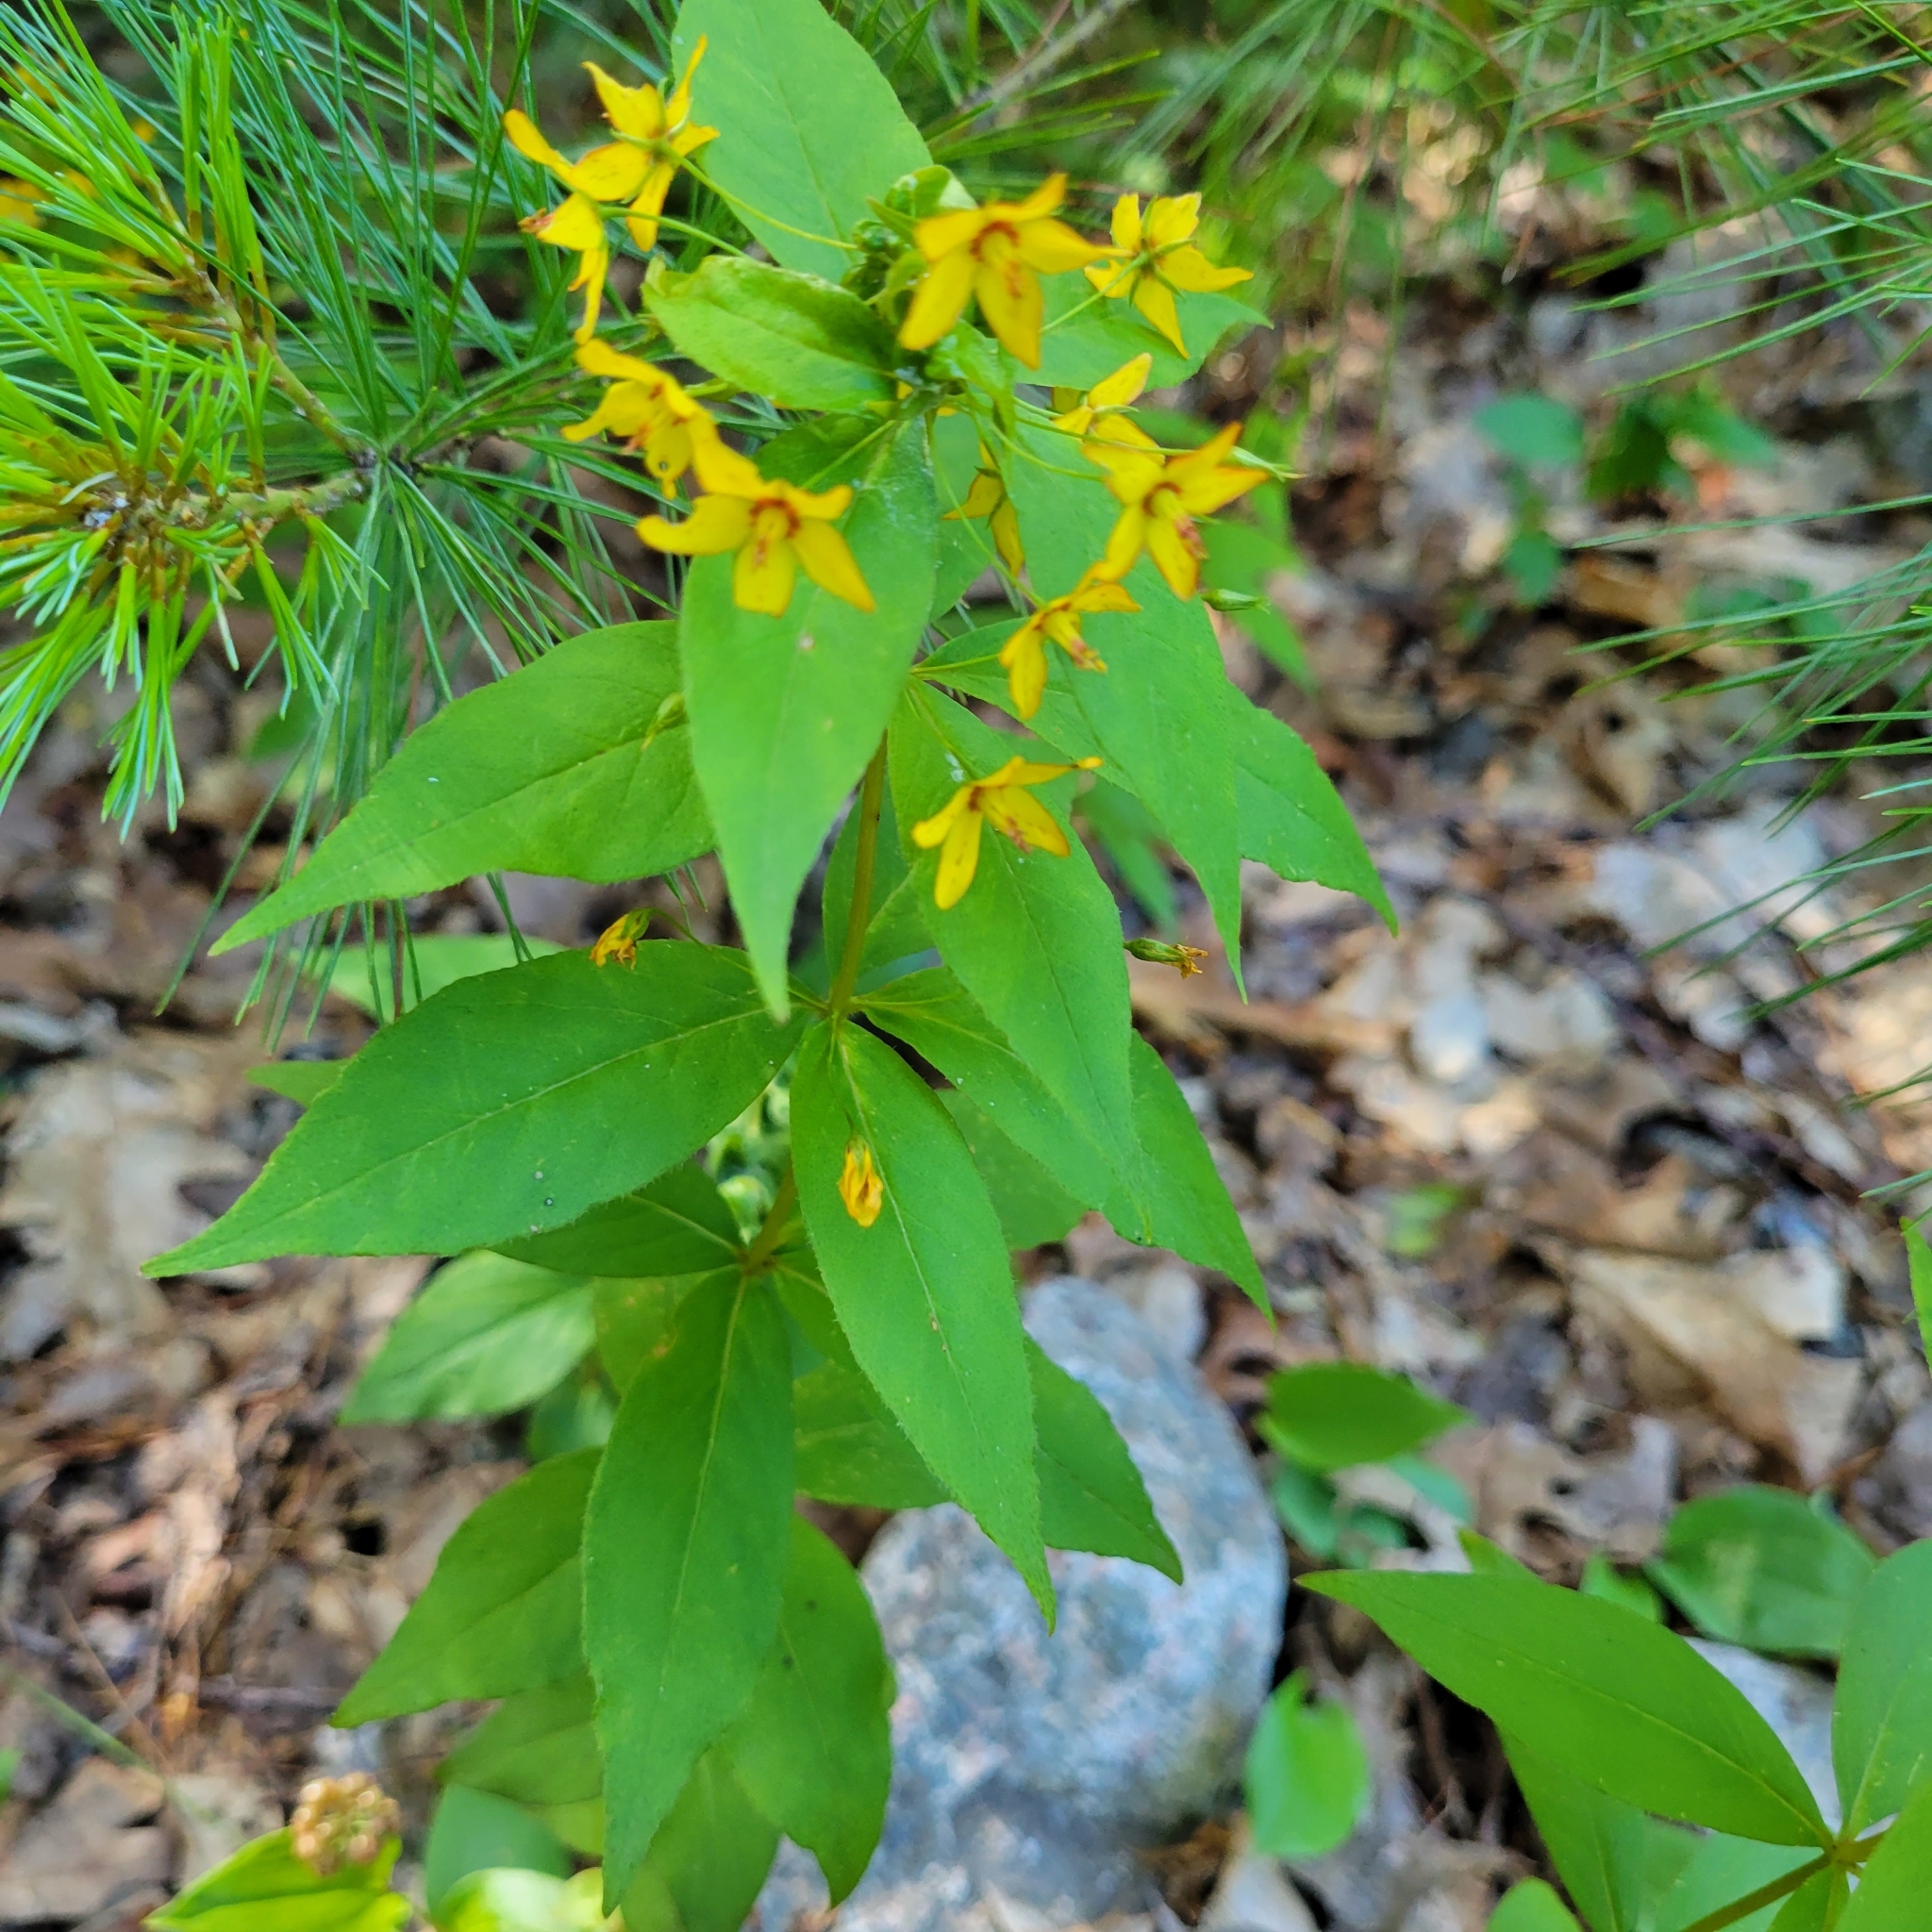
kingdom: Plantae
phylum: Tracheophyta
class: Magnoliopsida
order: Ericales
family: Primulaceae
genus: Lysimachia
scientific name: Lysimachia quadrifolia
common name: Whorled loosestrife
